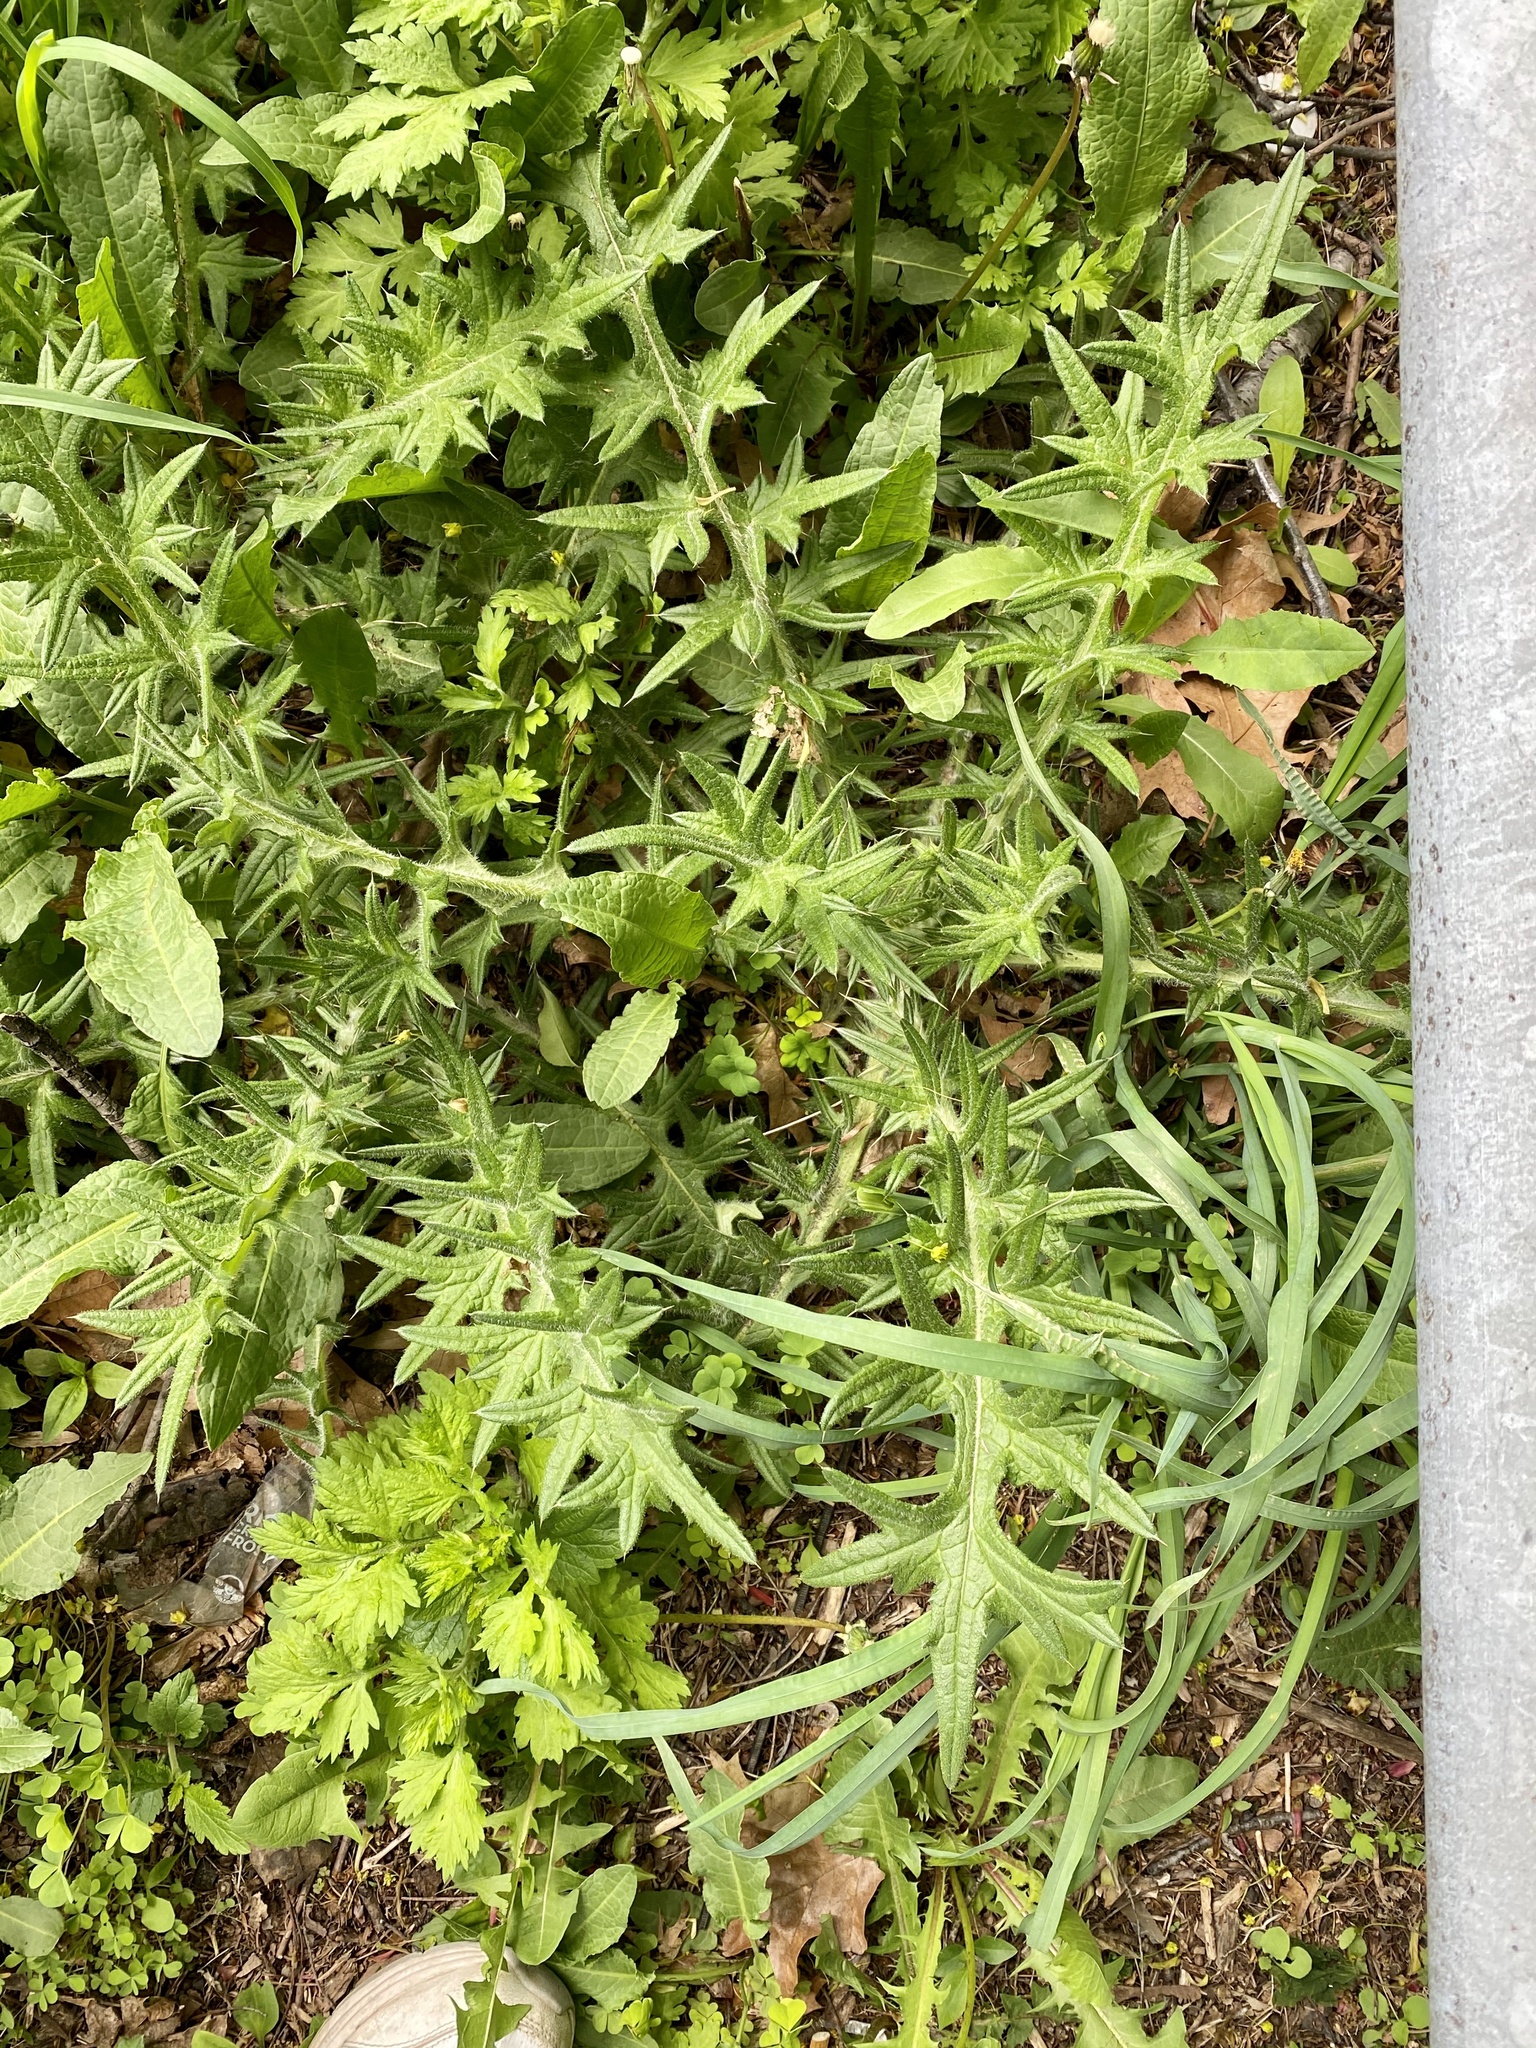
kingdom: Plantae
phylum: Tracheophyta
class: Magnoliopsida
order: Asterales
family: Asteraceae
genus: Cirsium
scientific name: Cirsium vulgare
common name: Bull thistle
